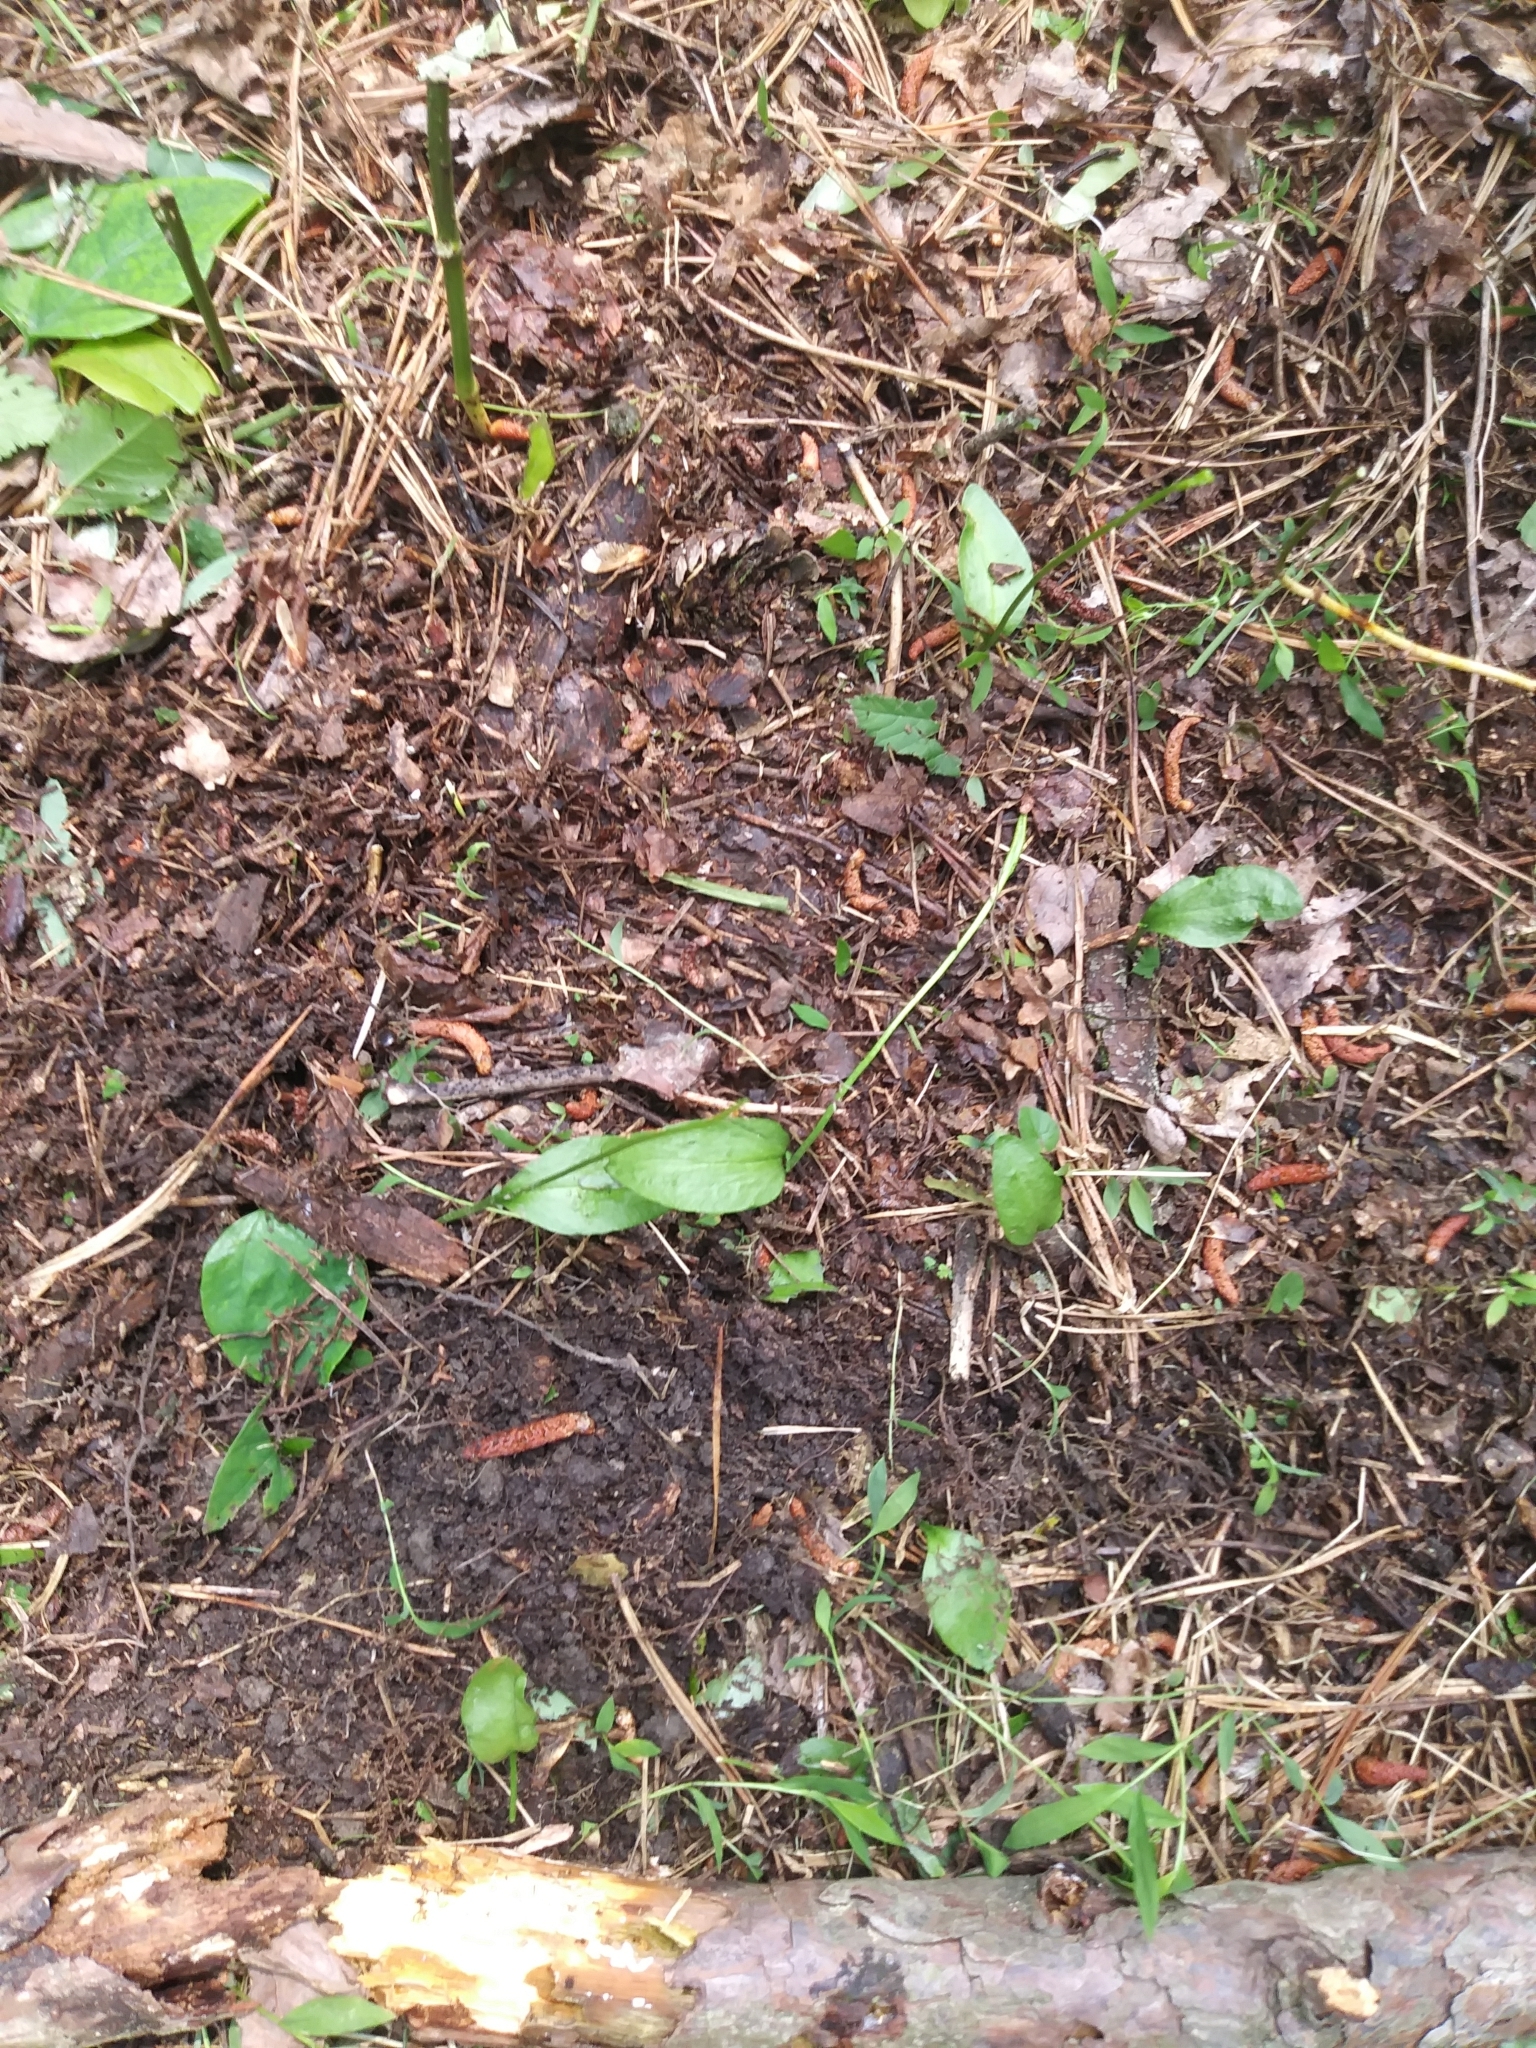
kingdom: Plantae
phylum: Tracheophyta
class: Polypodiopsida
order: Ophioglossales
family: Ophioglossaceae
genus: Ophioglossum
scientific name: Ophioglossum vulgatum
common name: Adder's-tongue
